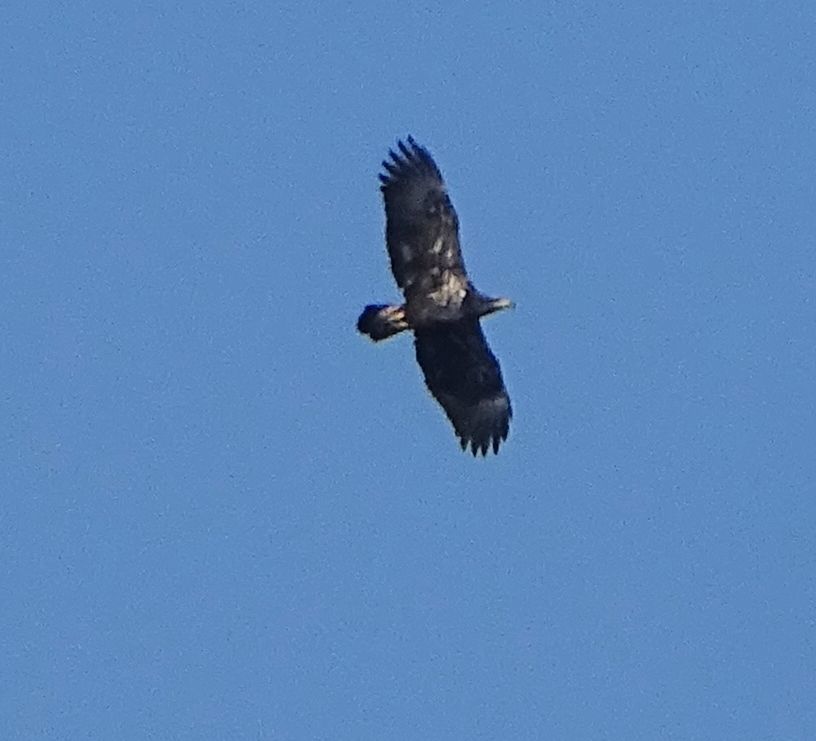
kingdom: Animalia
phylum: Chordata
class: Aves
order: Accipitriformes
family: Accipitridae
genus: Haliaeetus
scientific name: Haliaeetus leucocephalus
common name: Bald eagle
